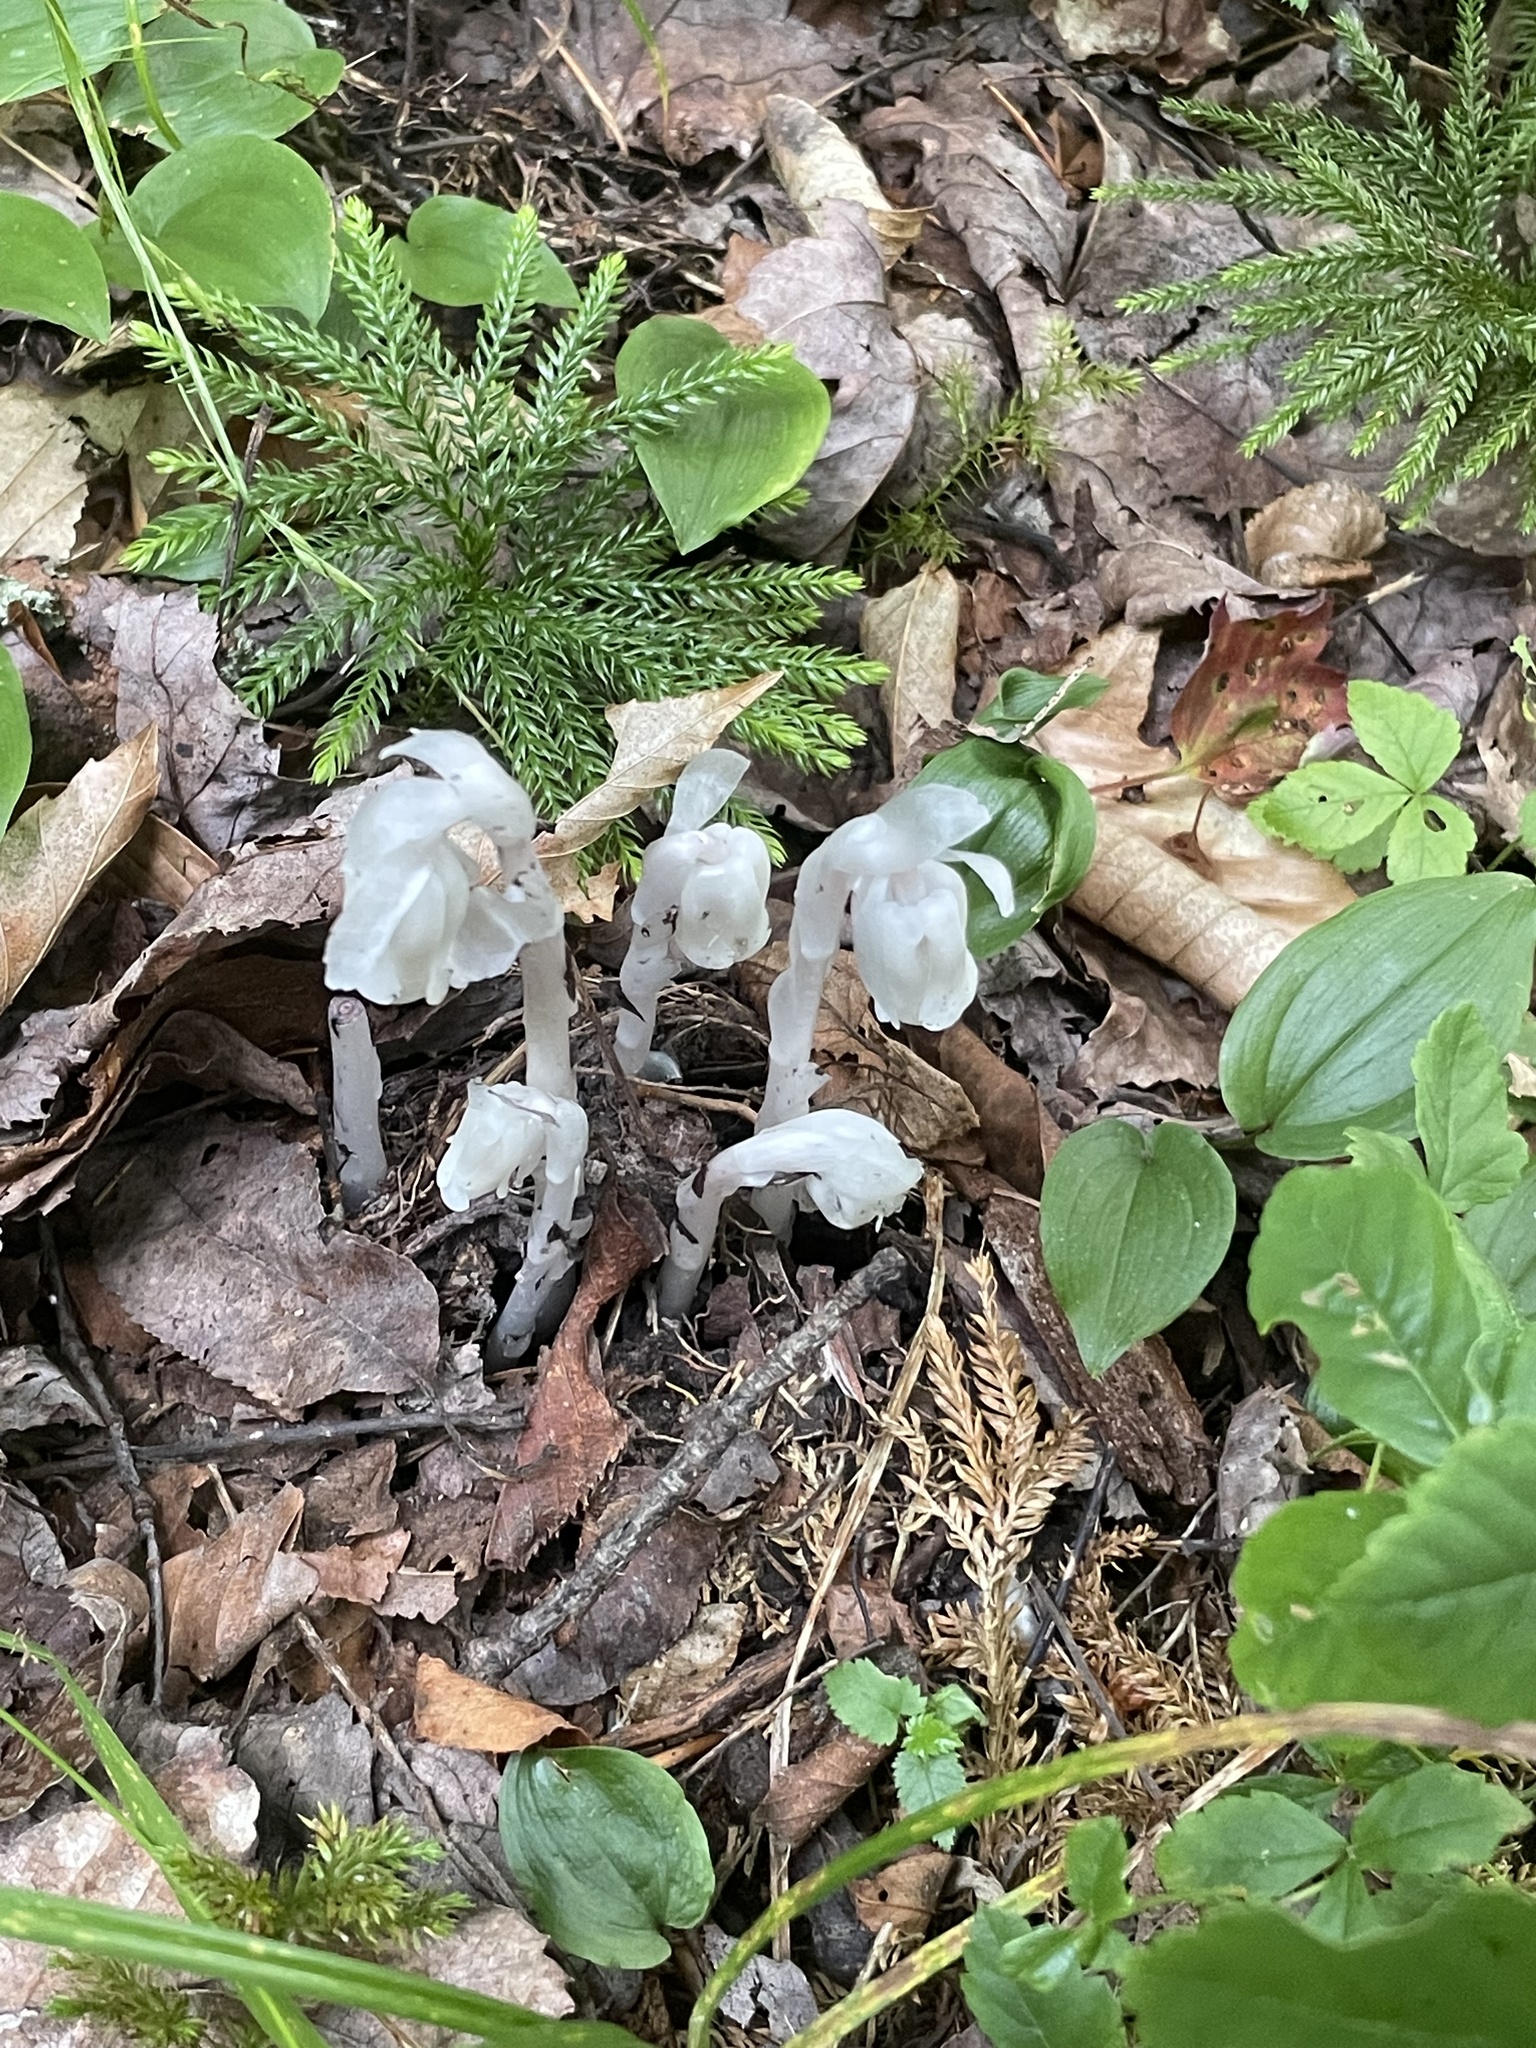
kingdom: Plantae
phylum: Tracheophyta
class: Magnoliopsida
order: Ericales
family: Ericaceae
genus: Monotropa
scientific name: Monotropa uniflora
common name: Convulsion root
